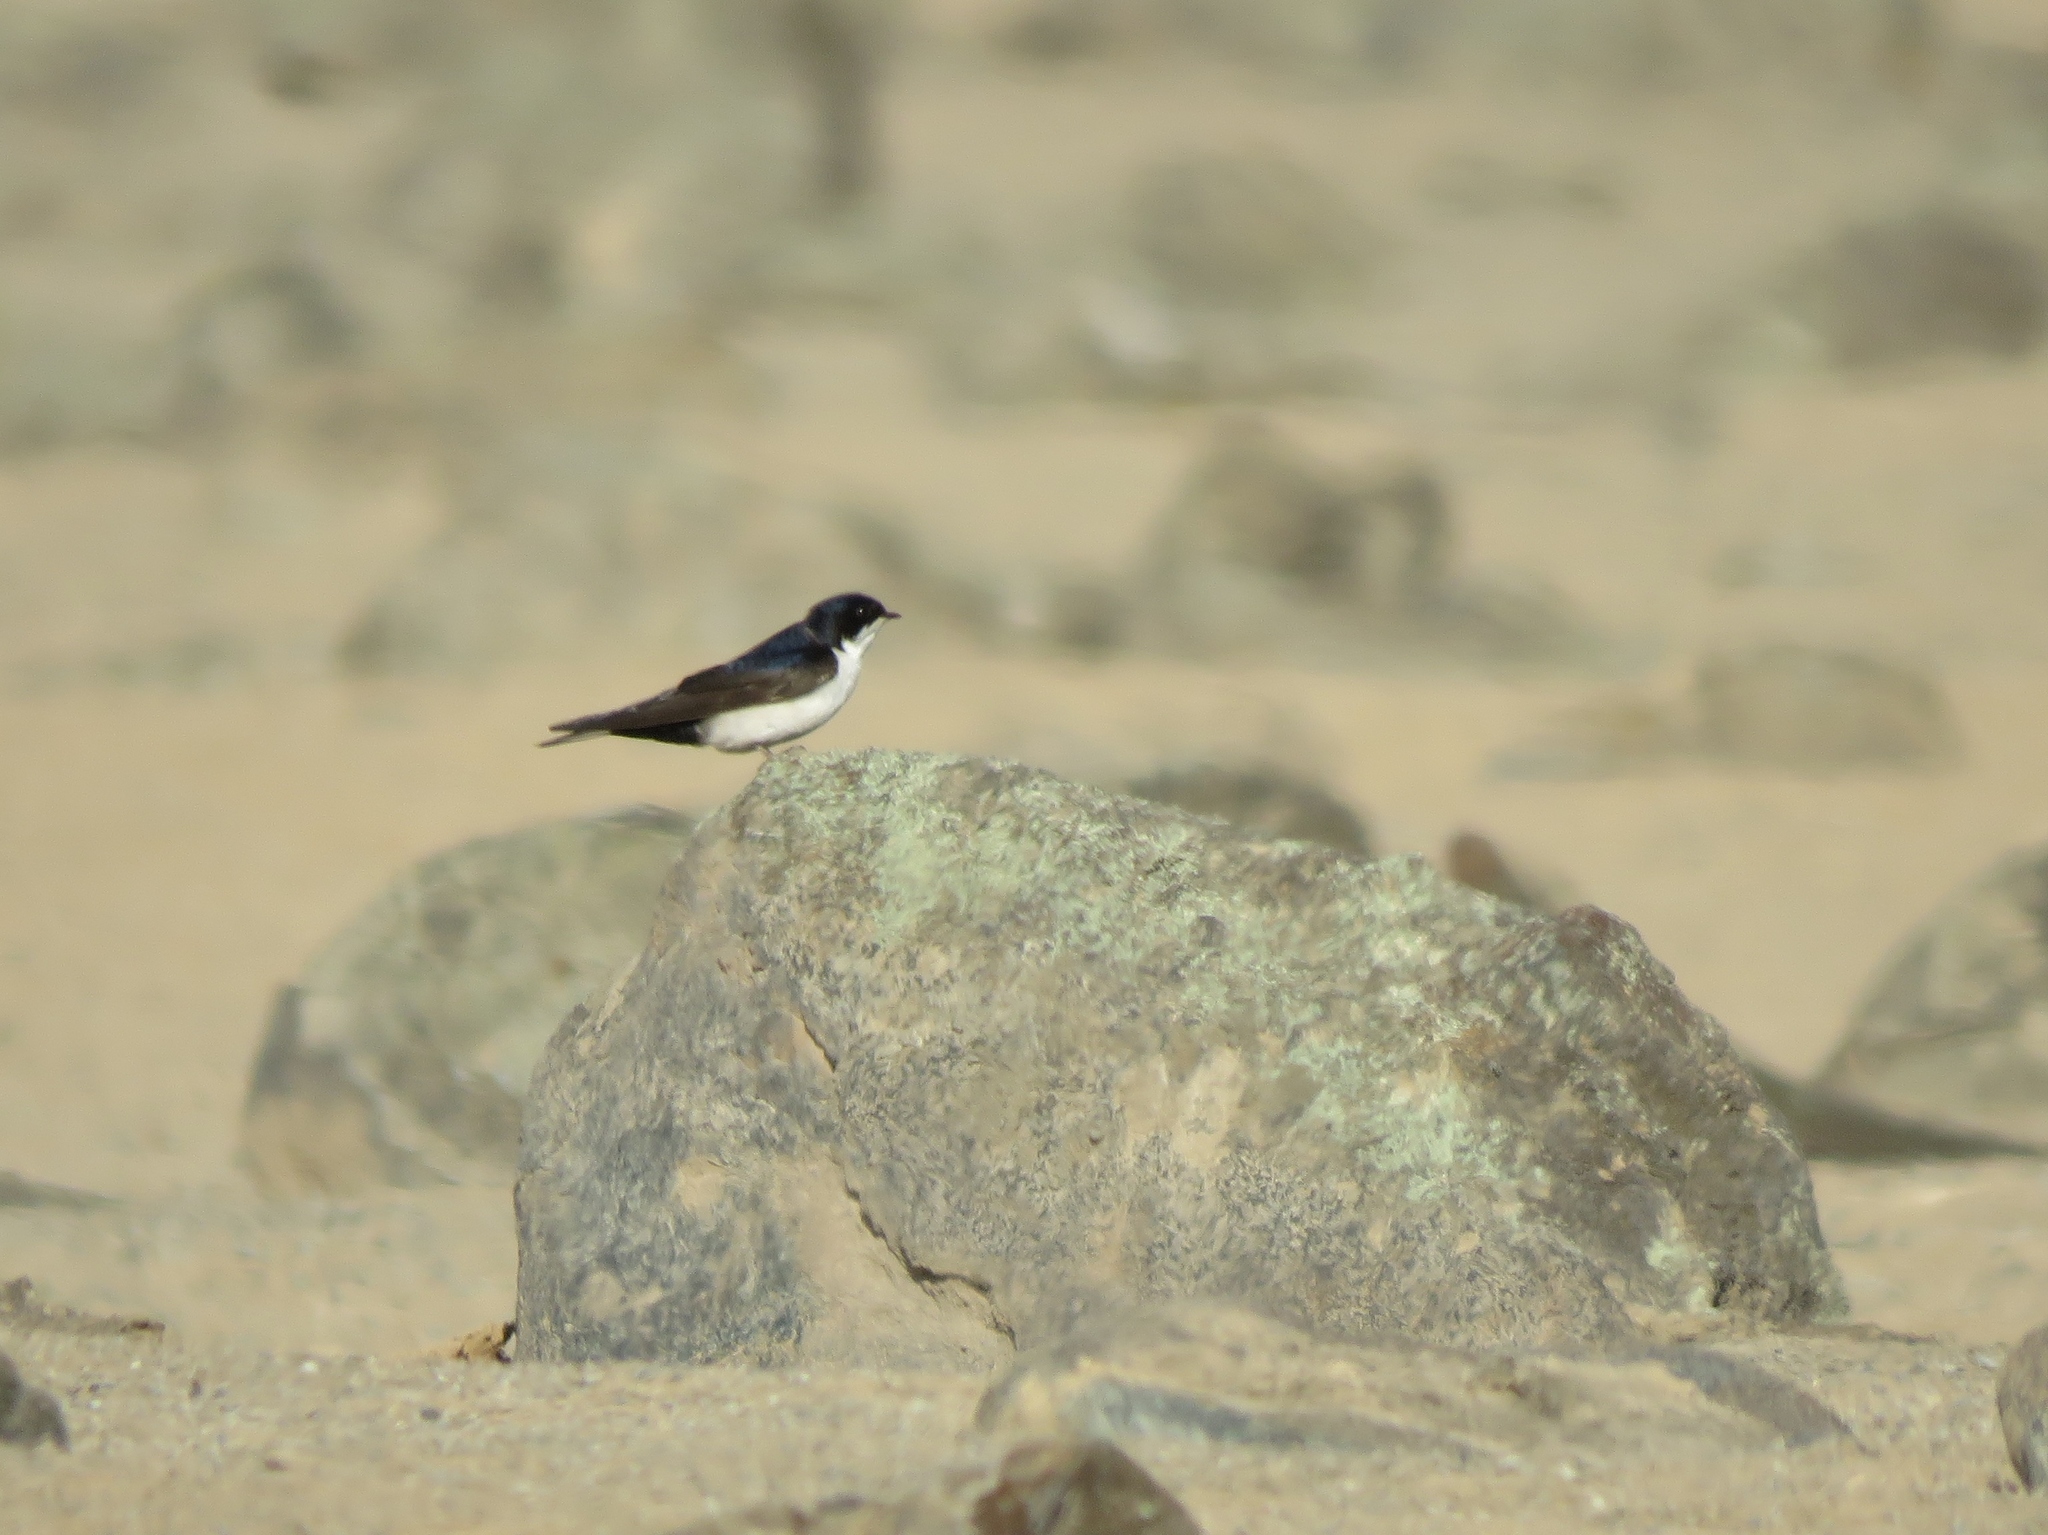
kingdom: Animalia
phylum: Chordata
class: Aves
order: Passeriformes
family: Hirundinidae
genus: Notiochelidon
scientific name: Notiochelidon cyanoleuca
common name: Blue-and-white swallow
